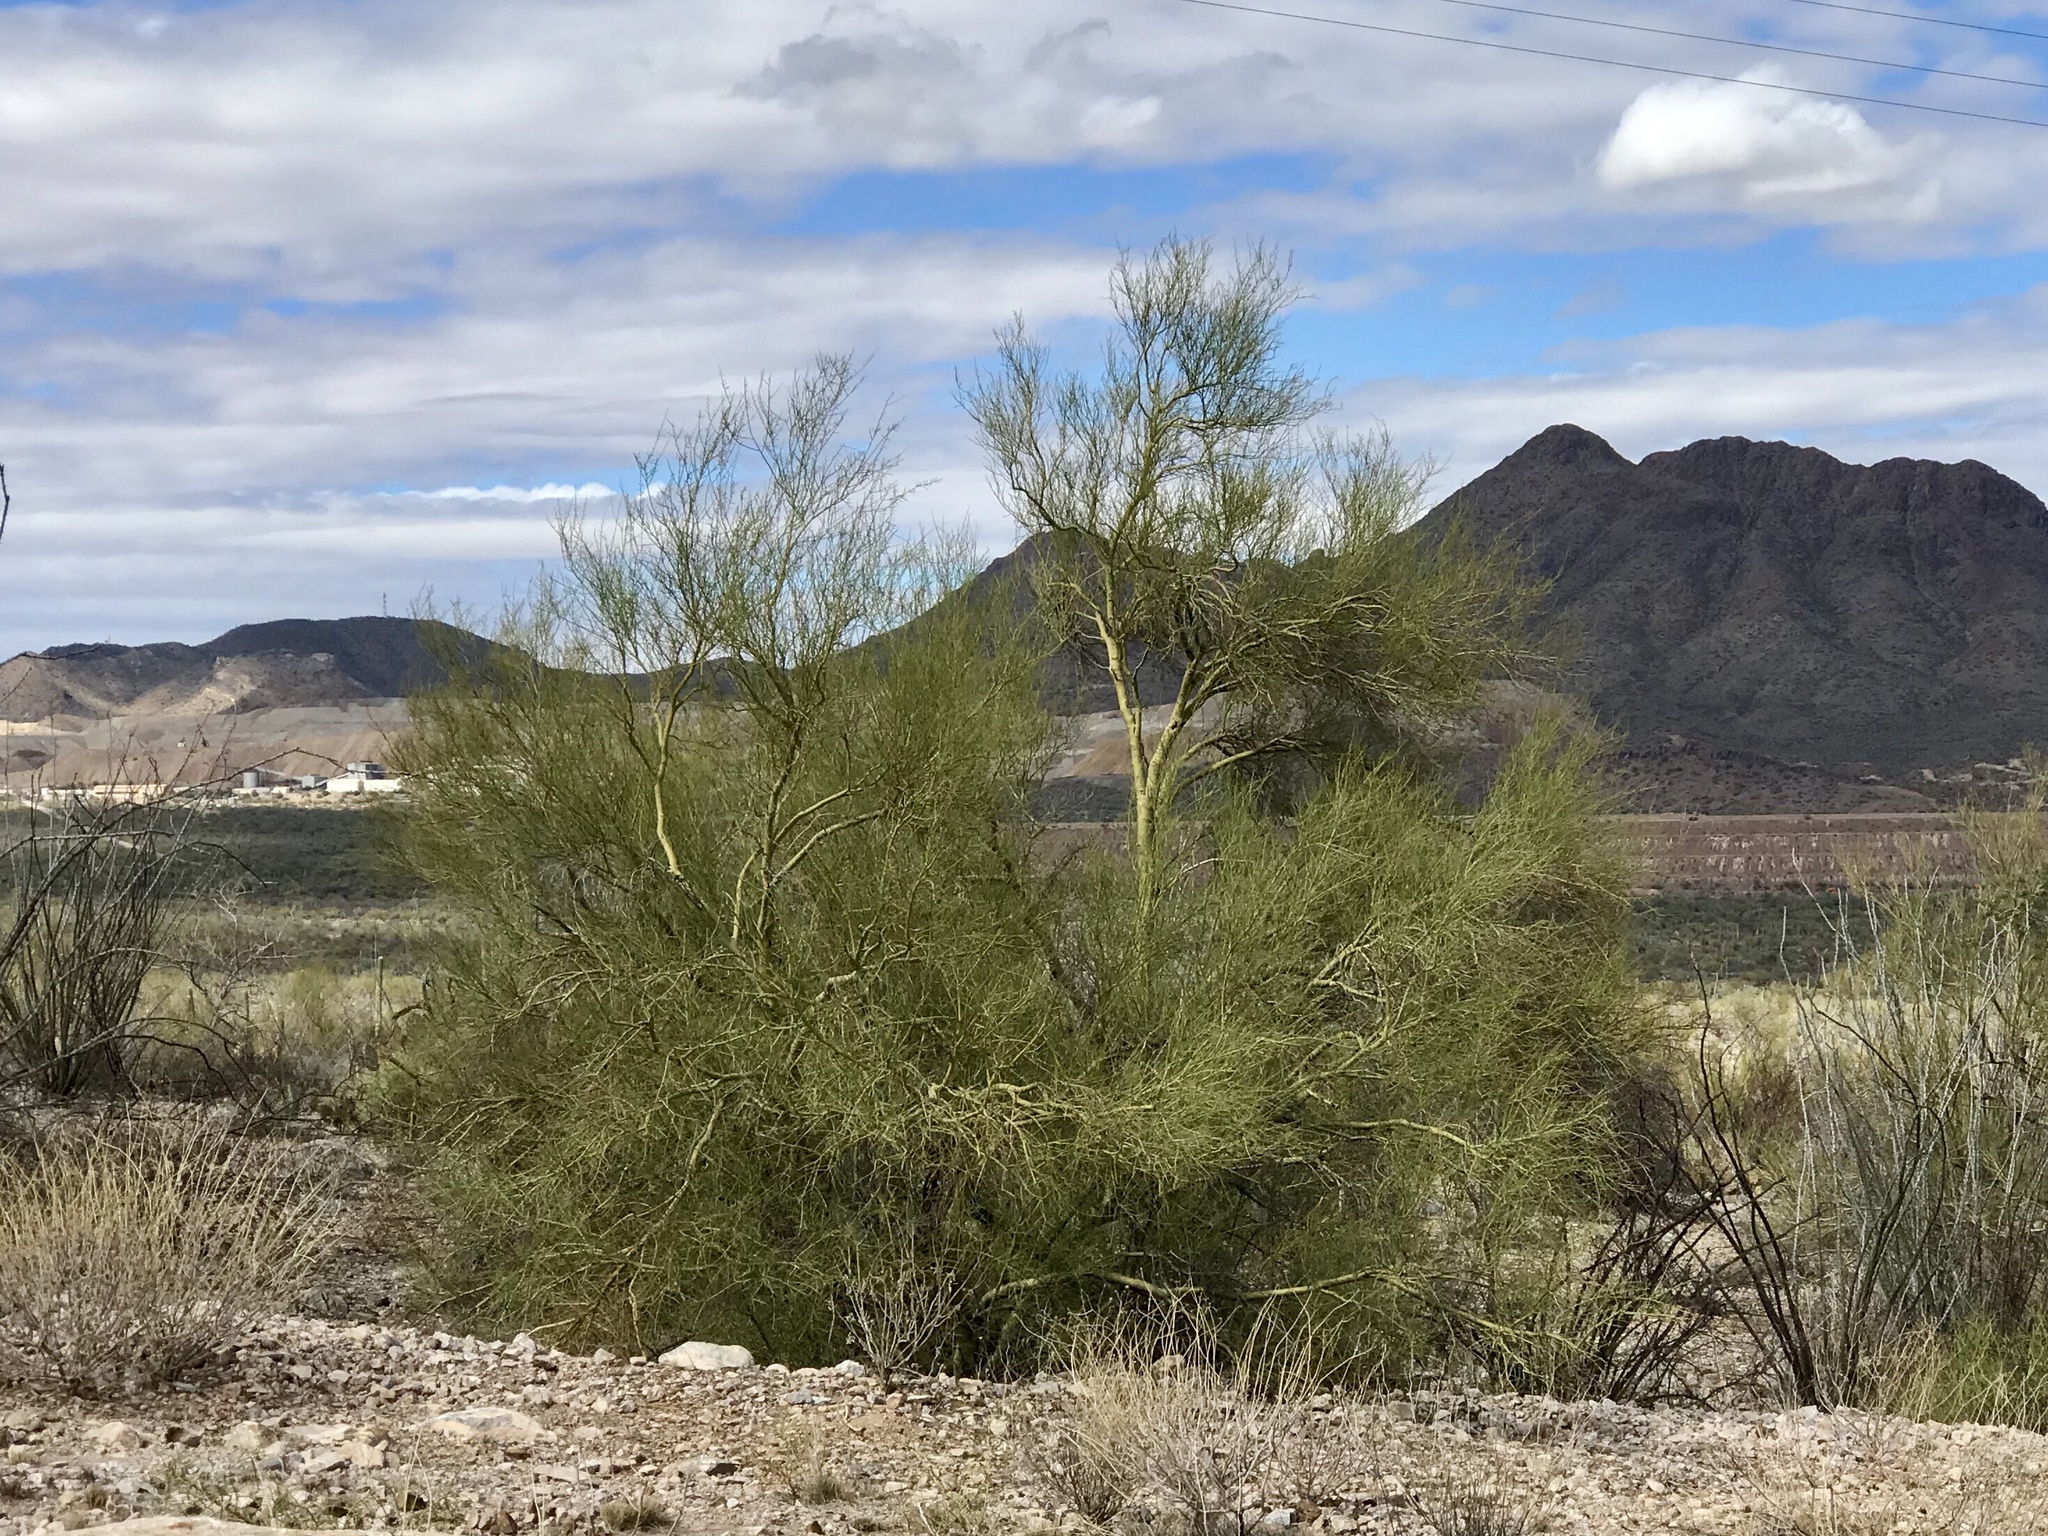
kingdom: Plantae
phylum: Tracheophyta
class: Magnoliopsida
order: Fabales
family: Fabaceae
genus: Parkinsonia
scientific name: Parkinsonia microphylla
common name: Yellow paloverde
